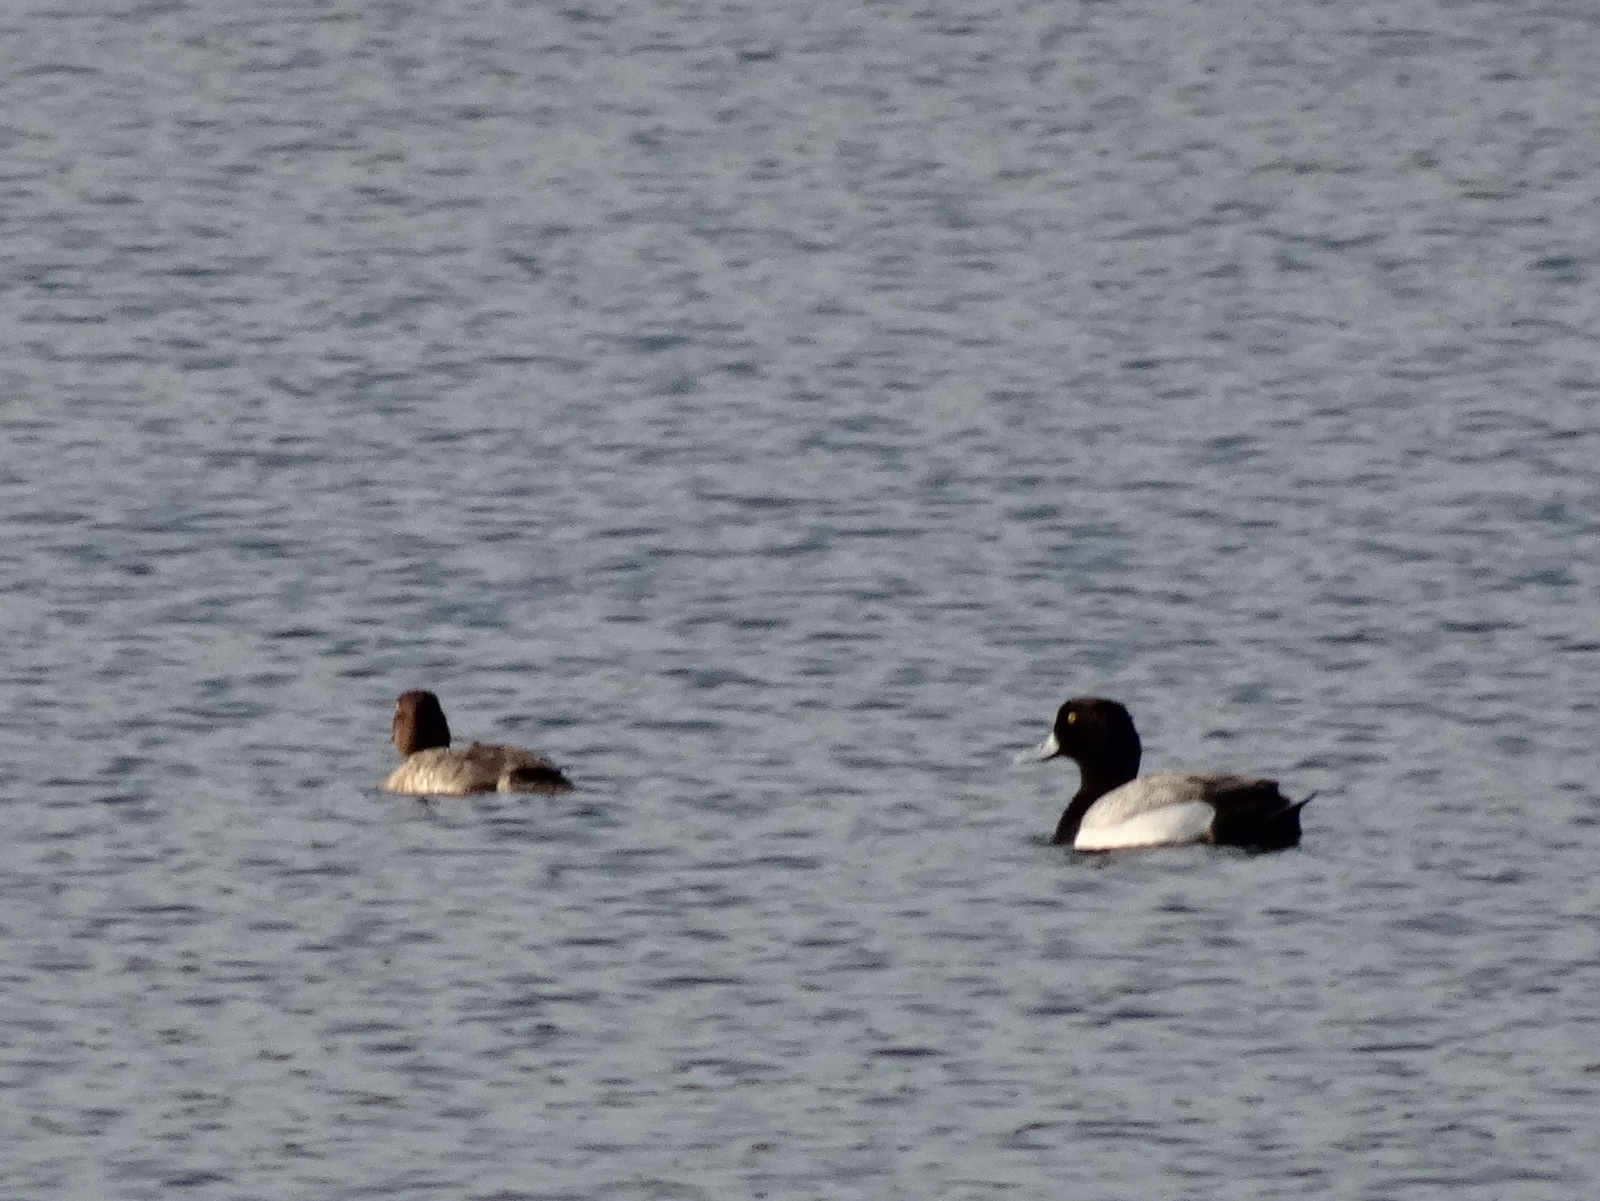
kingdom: Animalia
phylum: Chordata
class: Aves
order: Anseriformes
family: Anatidae
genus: Aythya
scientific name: Aythya marila
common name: Greater scaup
